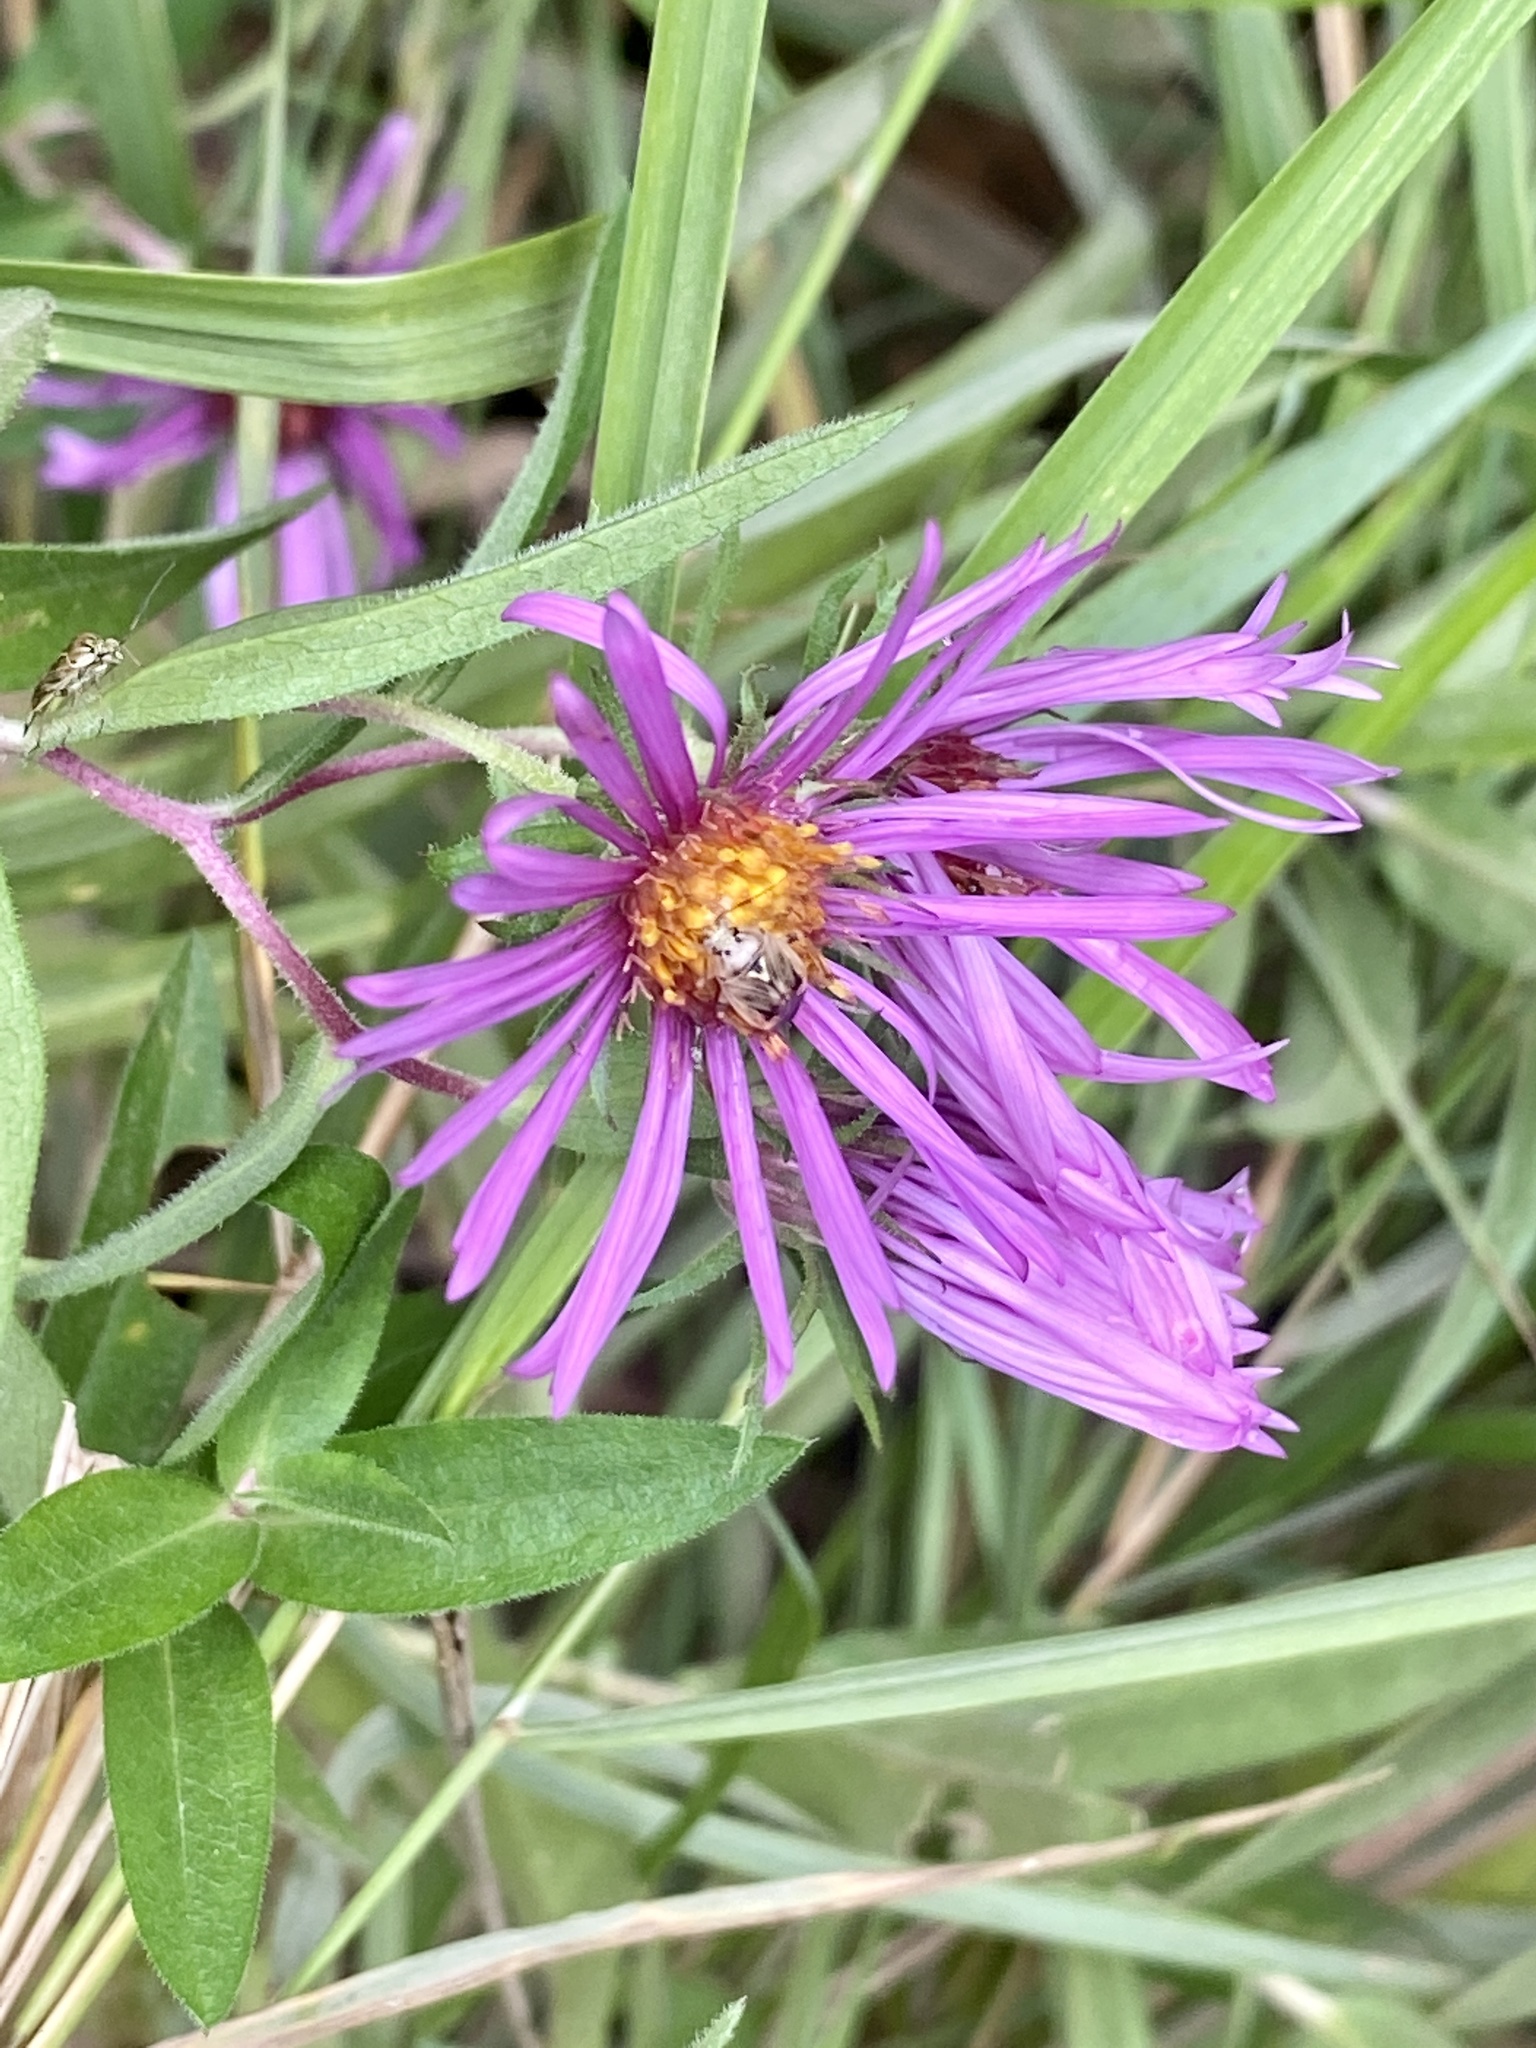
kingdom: Plantae
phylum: Tracheophyta
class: Magnoliopsida
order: Asterales
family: Asteraceae
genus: Symphyotrichum
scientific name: Symphyotrichum novae-angliae
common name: Michaelmas daisy
